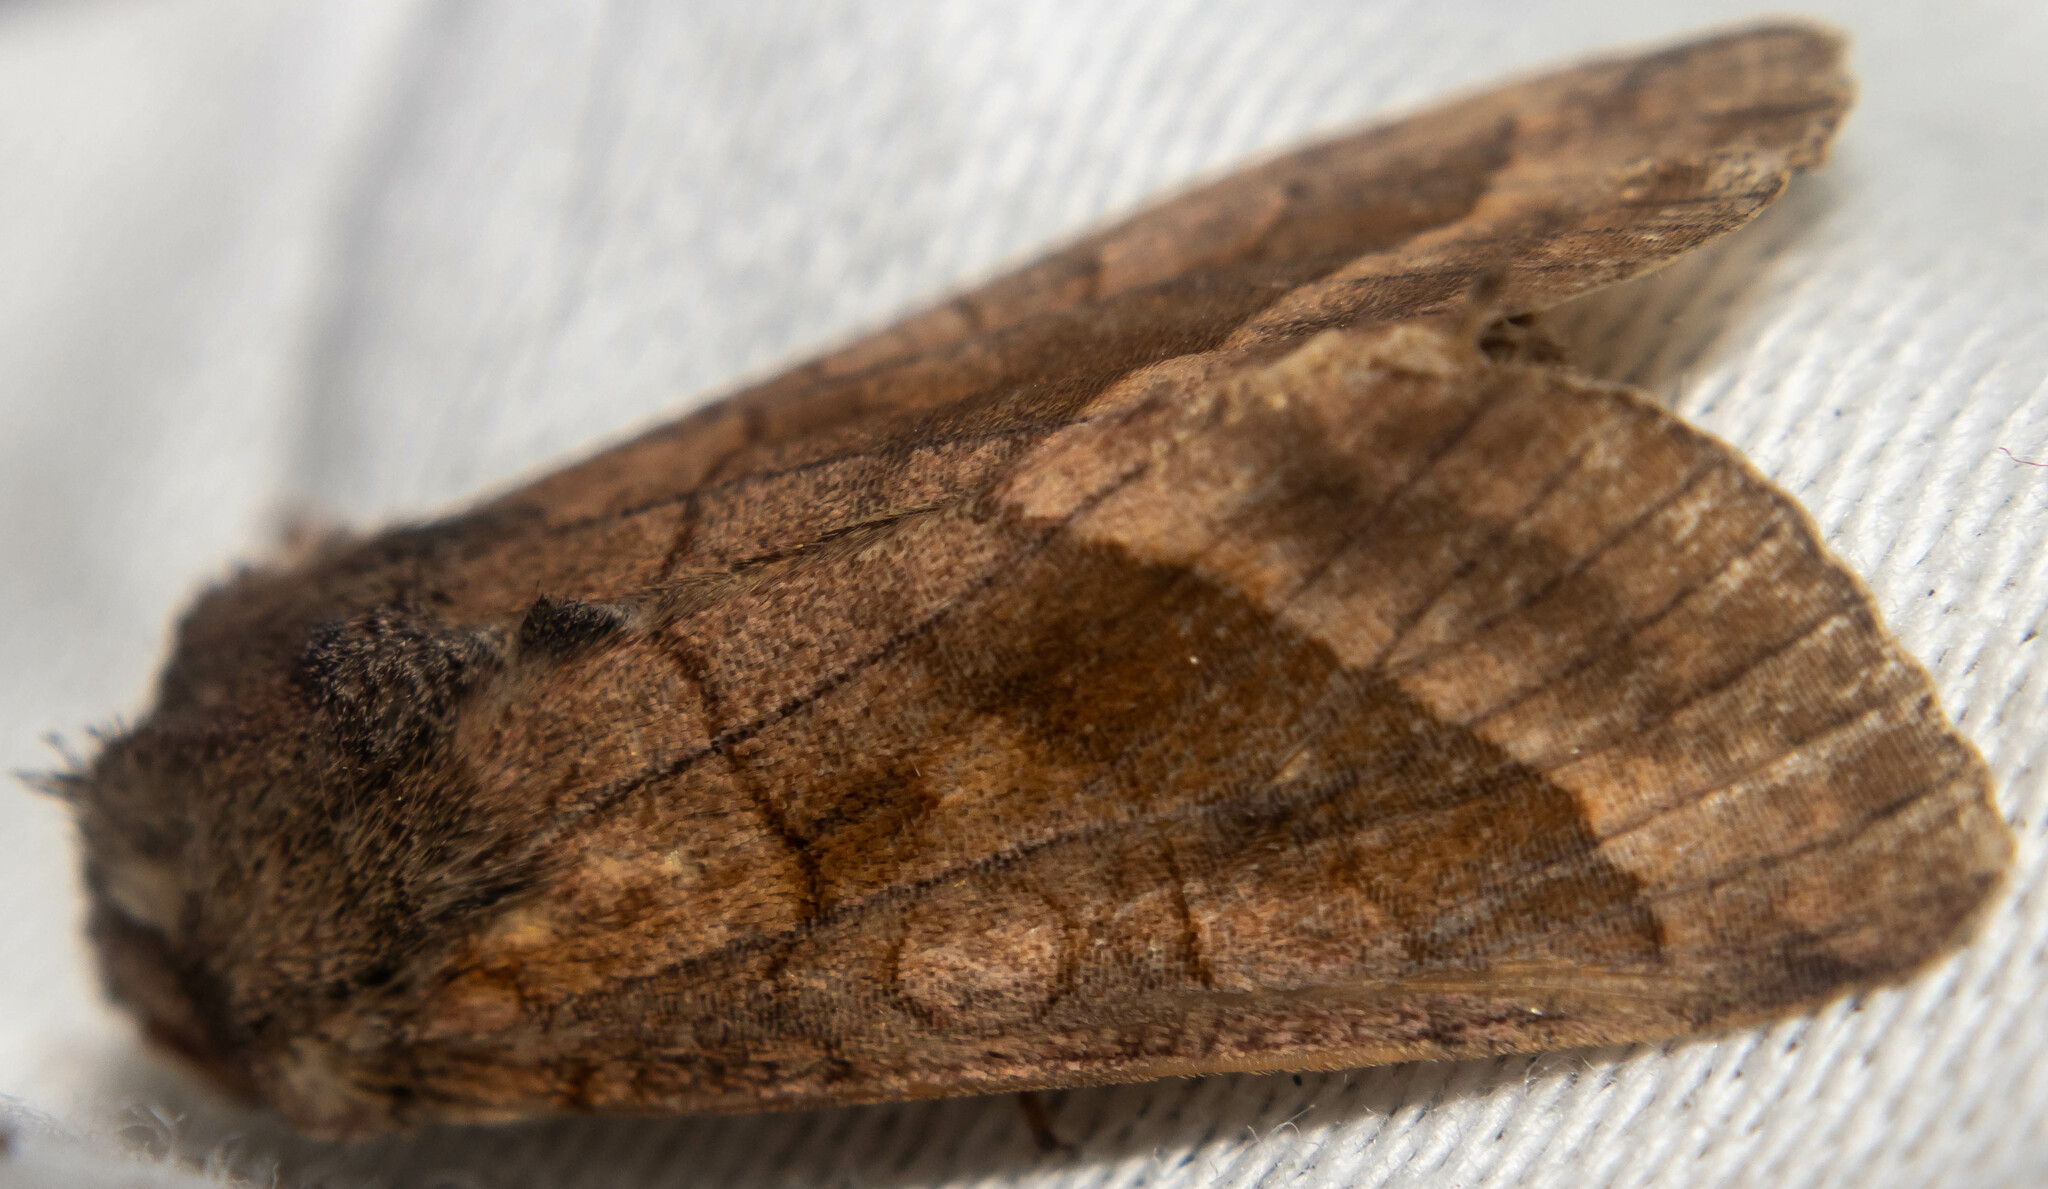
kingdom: Animalia
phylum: Arthropoda
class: Insecta
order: Lepidoptera
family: Noctuidae
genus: Hydraecia
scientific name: Hydraecia micacea
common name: Rosy rustic
